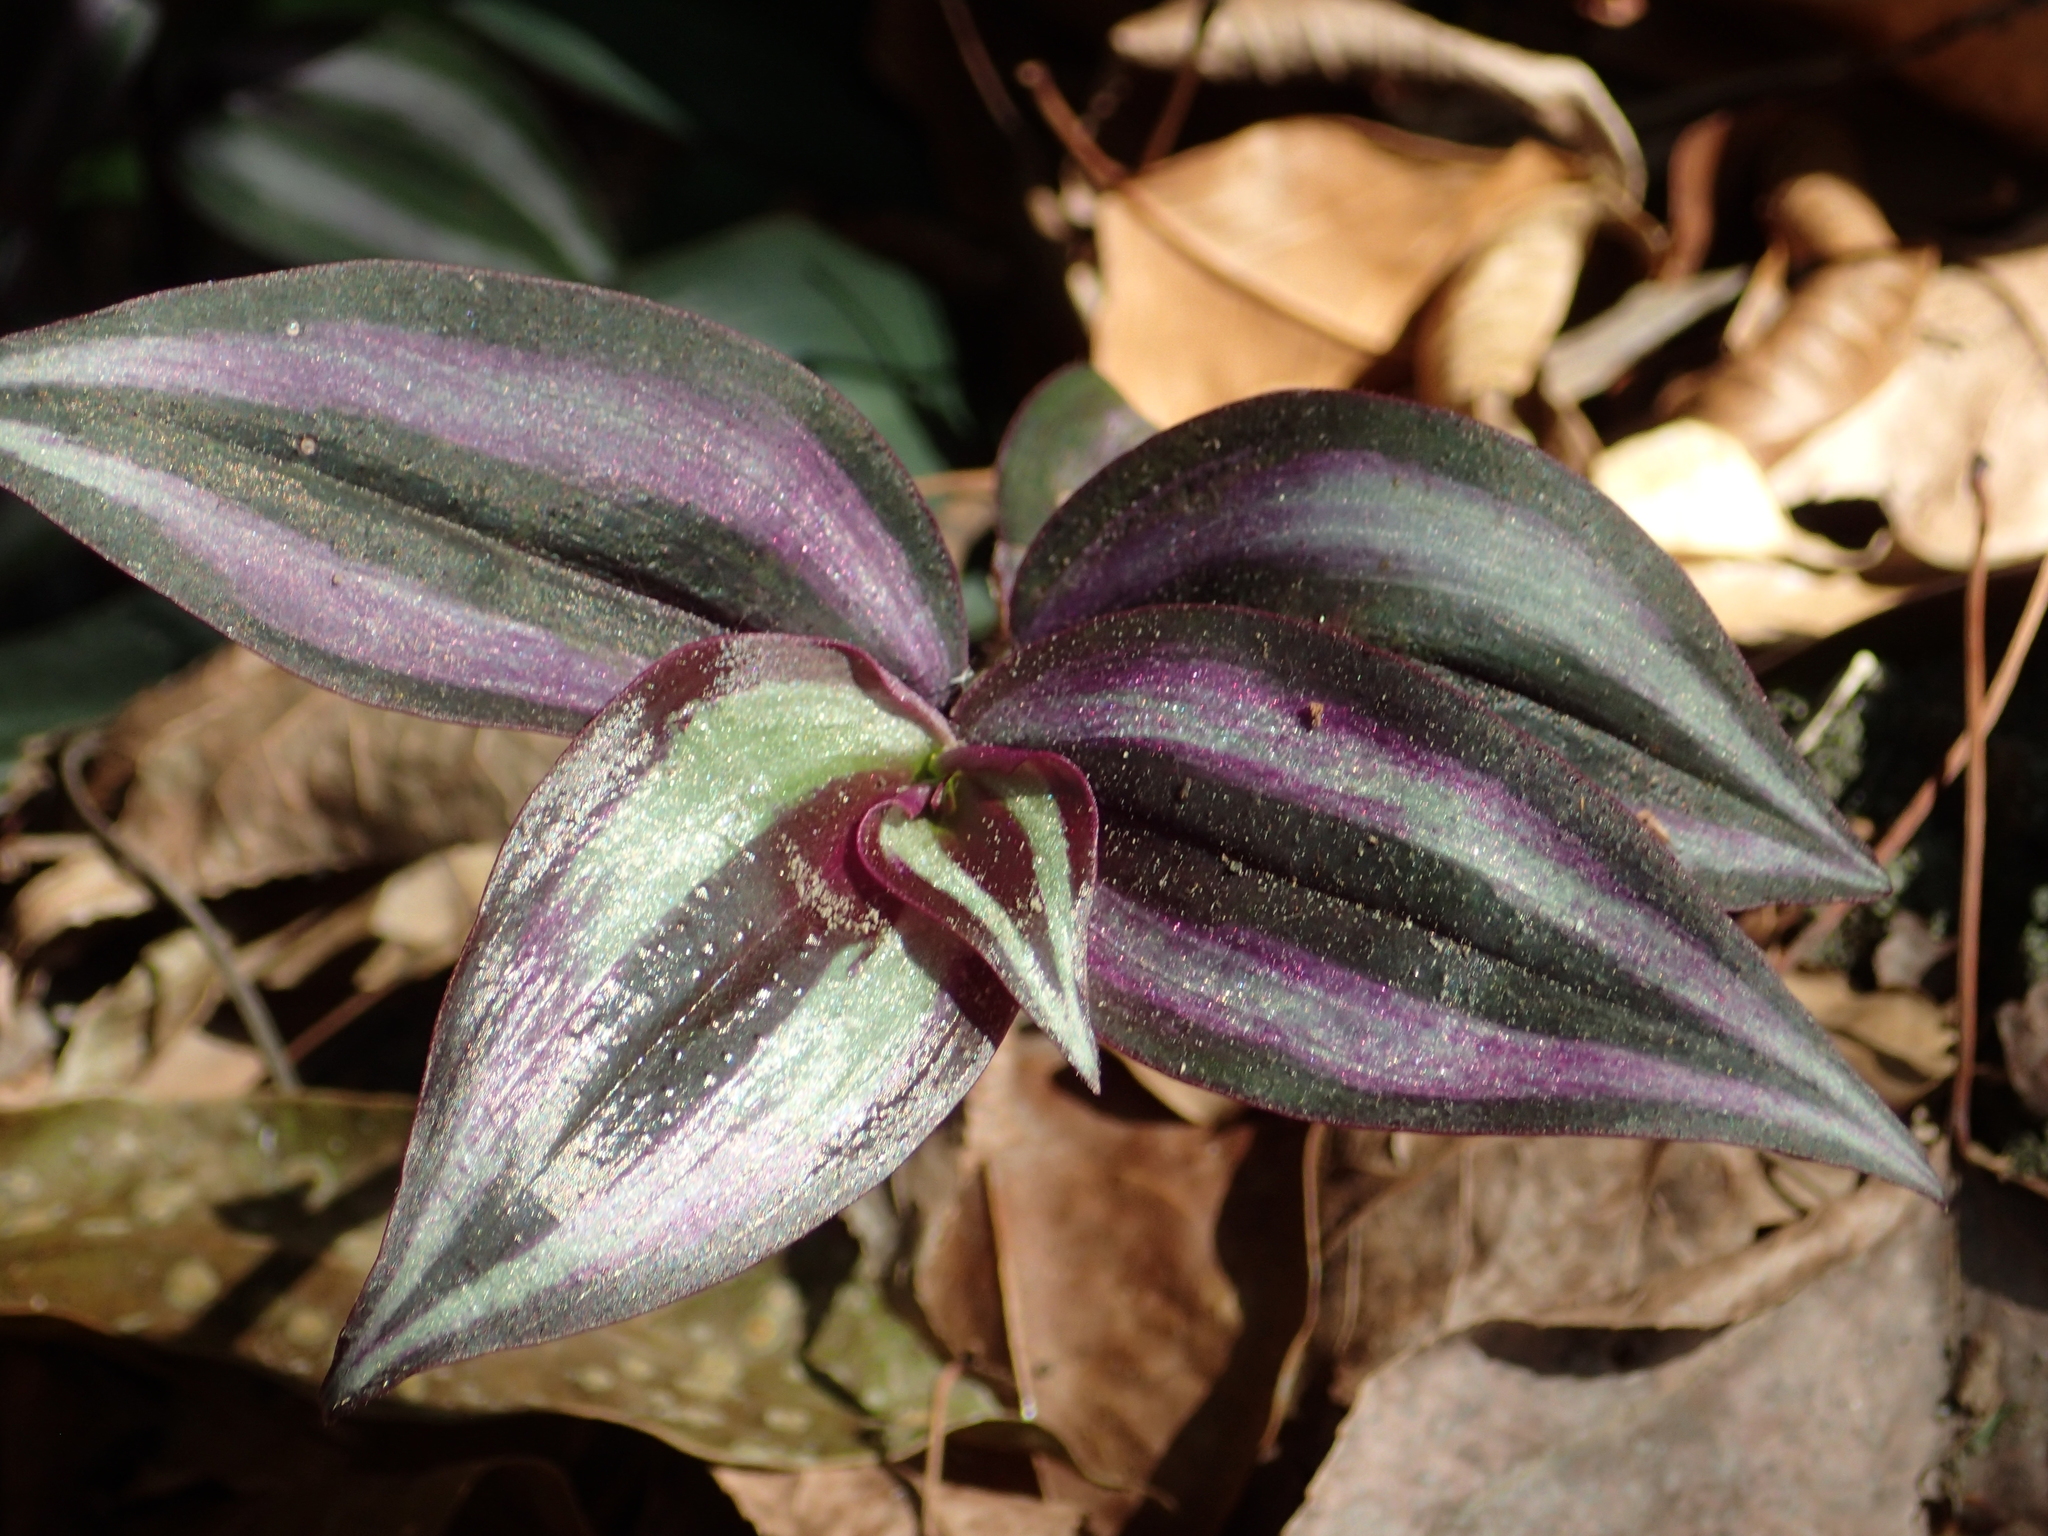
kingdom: Plantae
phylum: Tracheophyta
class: Liliopsida
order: Commelinales
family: Commelinaceae
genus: Tradescantia
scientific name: Tradescantia zebrina
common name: Inchplant
